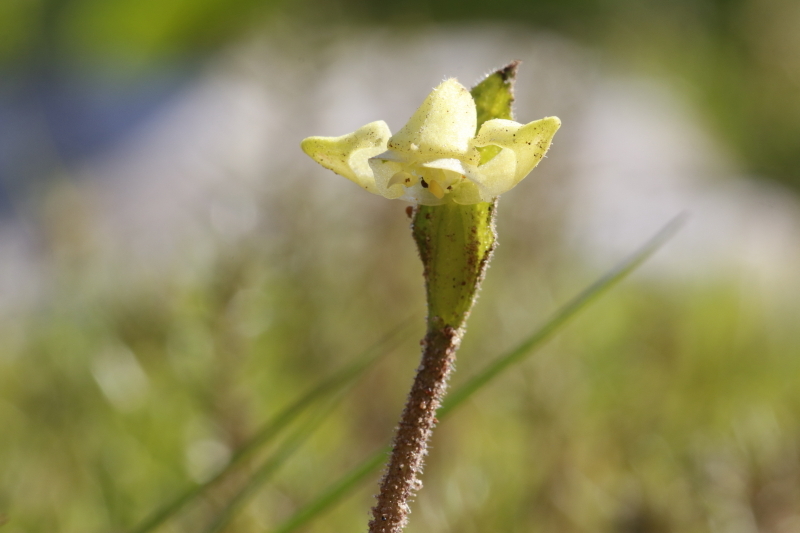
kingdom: Plantae
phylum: Tracheophyta
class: Liliopsida
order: Asparagales
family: Orchidaceae
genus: Disperis
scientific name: Disperis villosa
